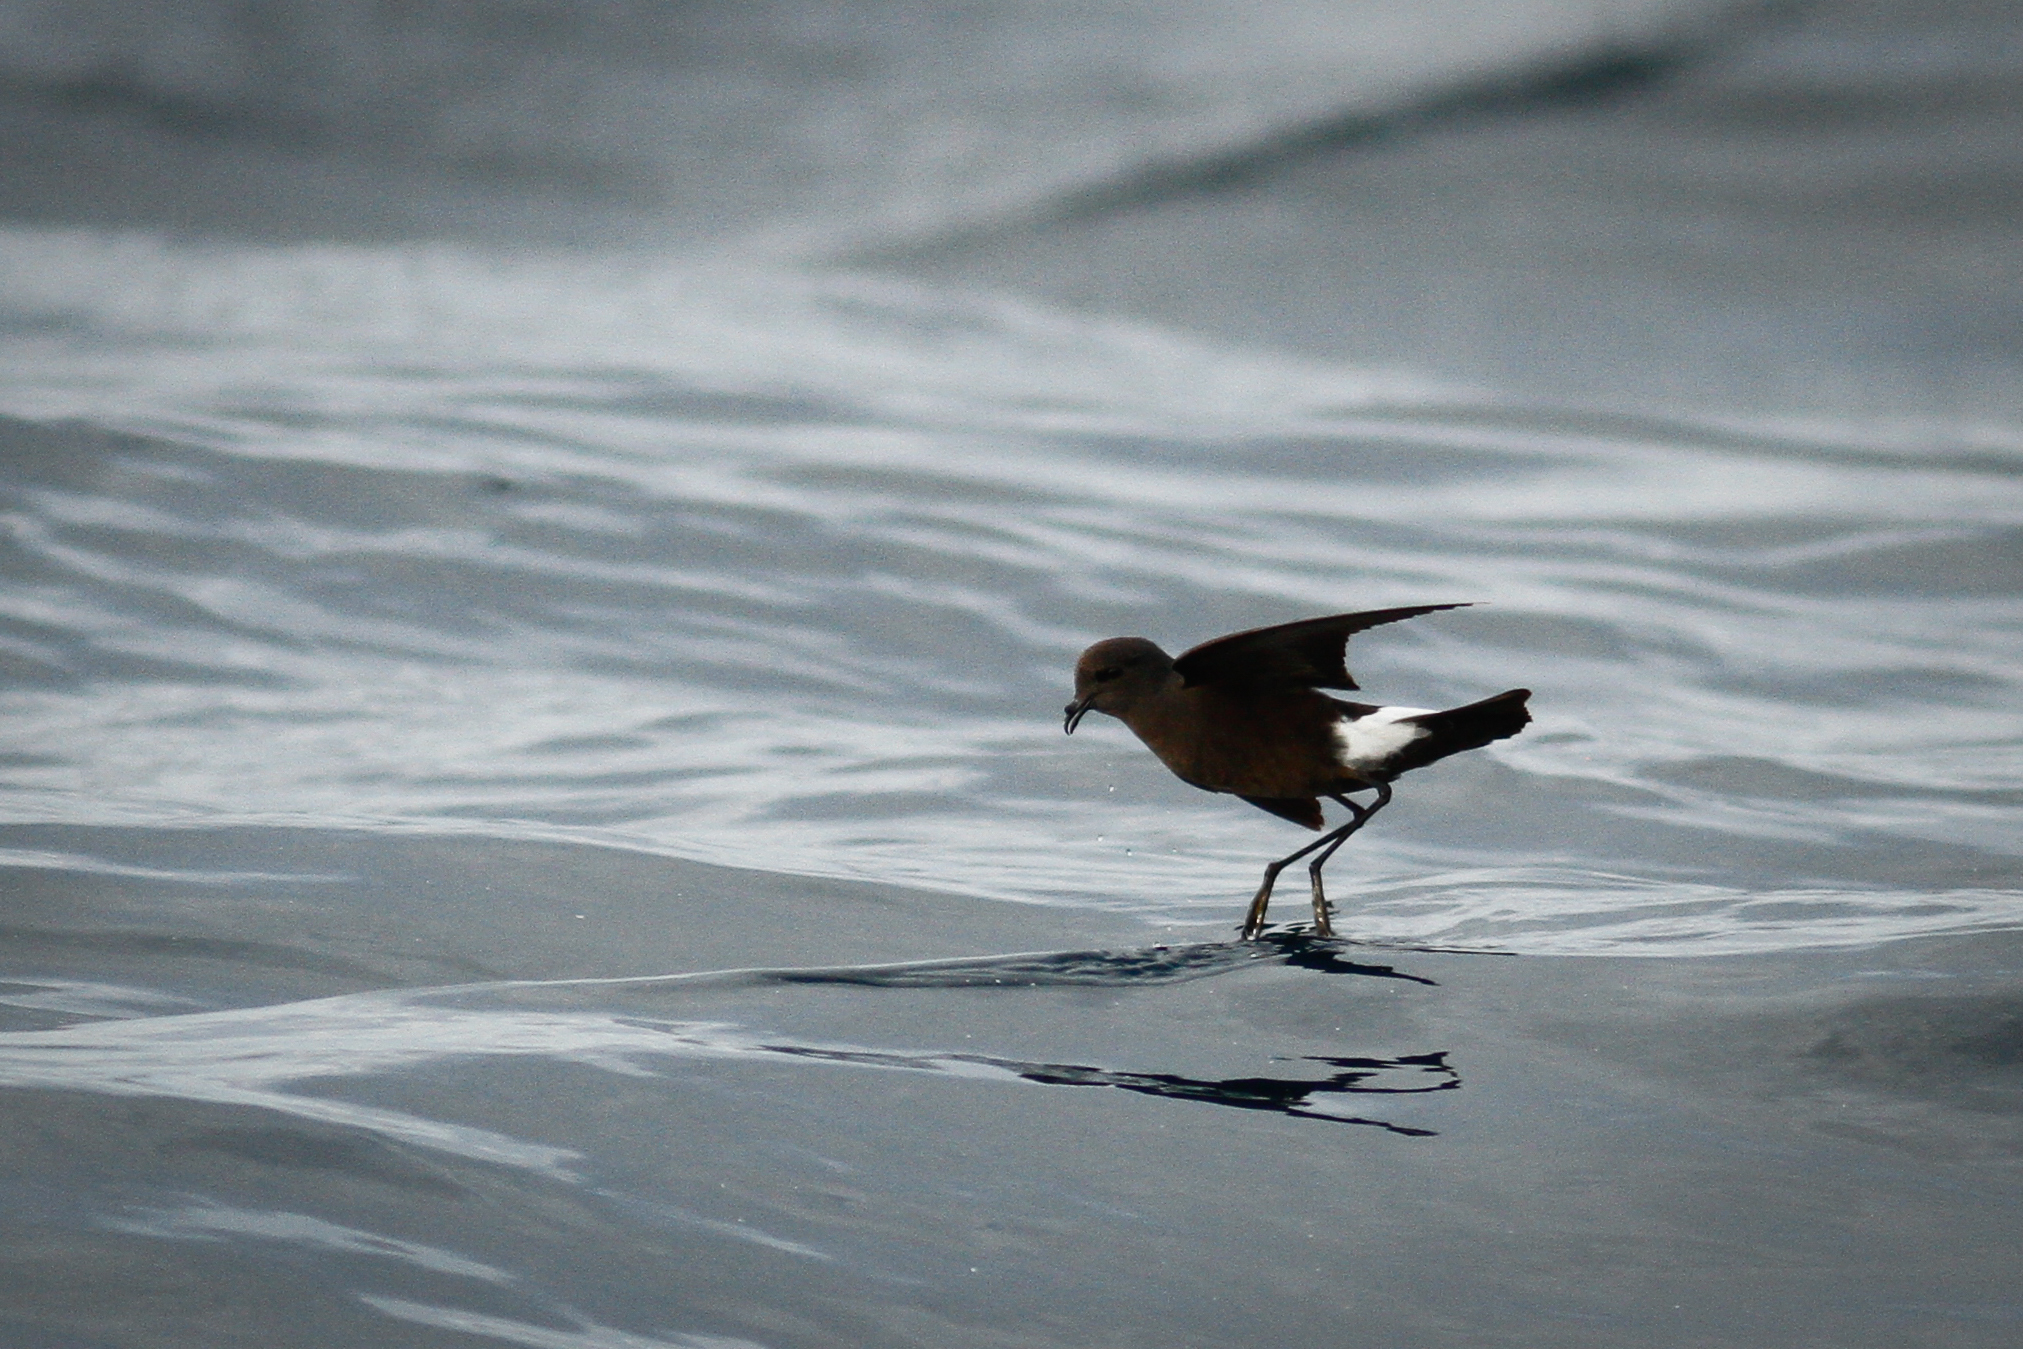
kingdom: Animalia
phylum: Chordata
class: Aves
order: Procellariiformes
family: Hydrobatidae
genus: Oceanites
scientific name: Oceanites oceanicus
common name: Wilson's storm petrel
